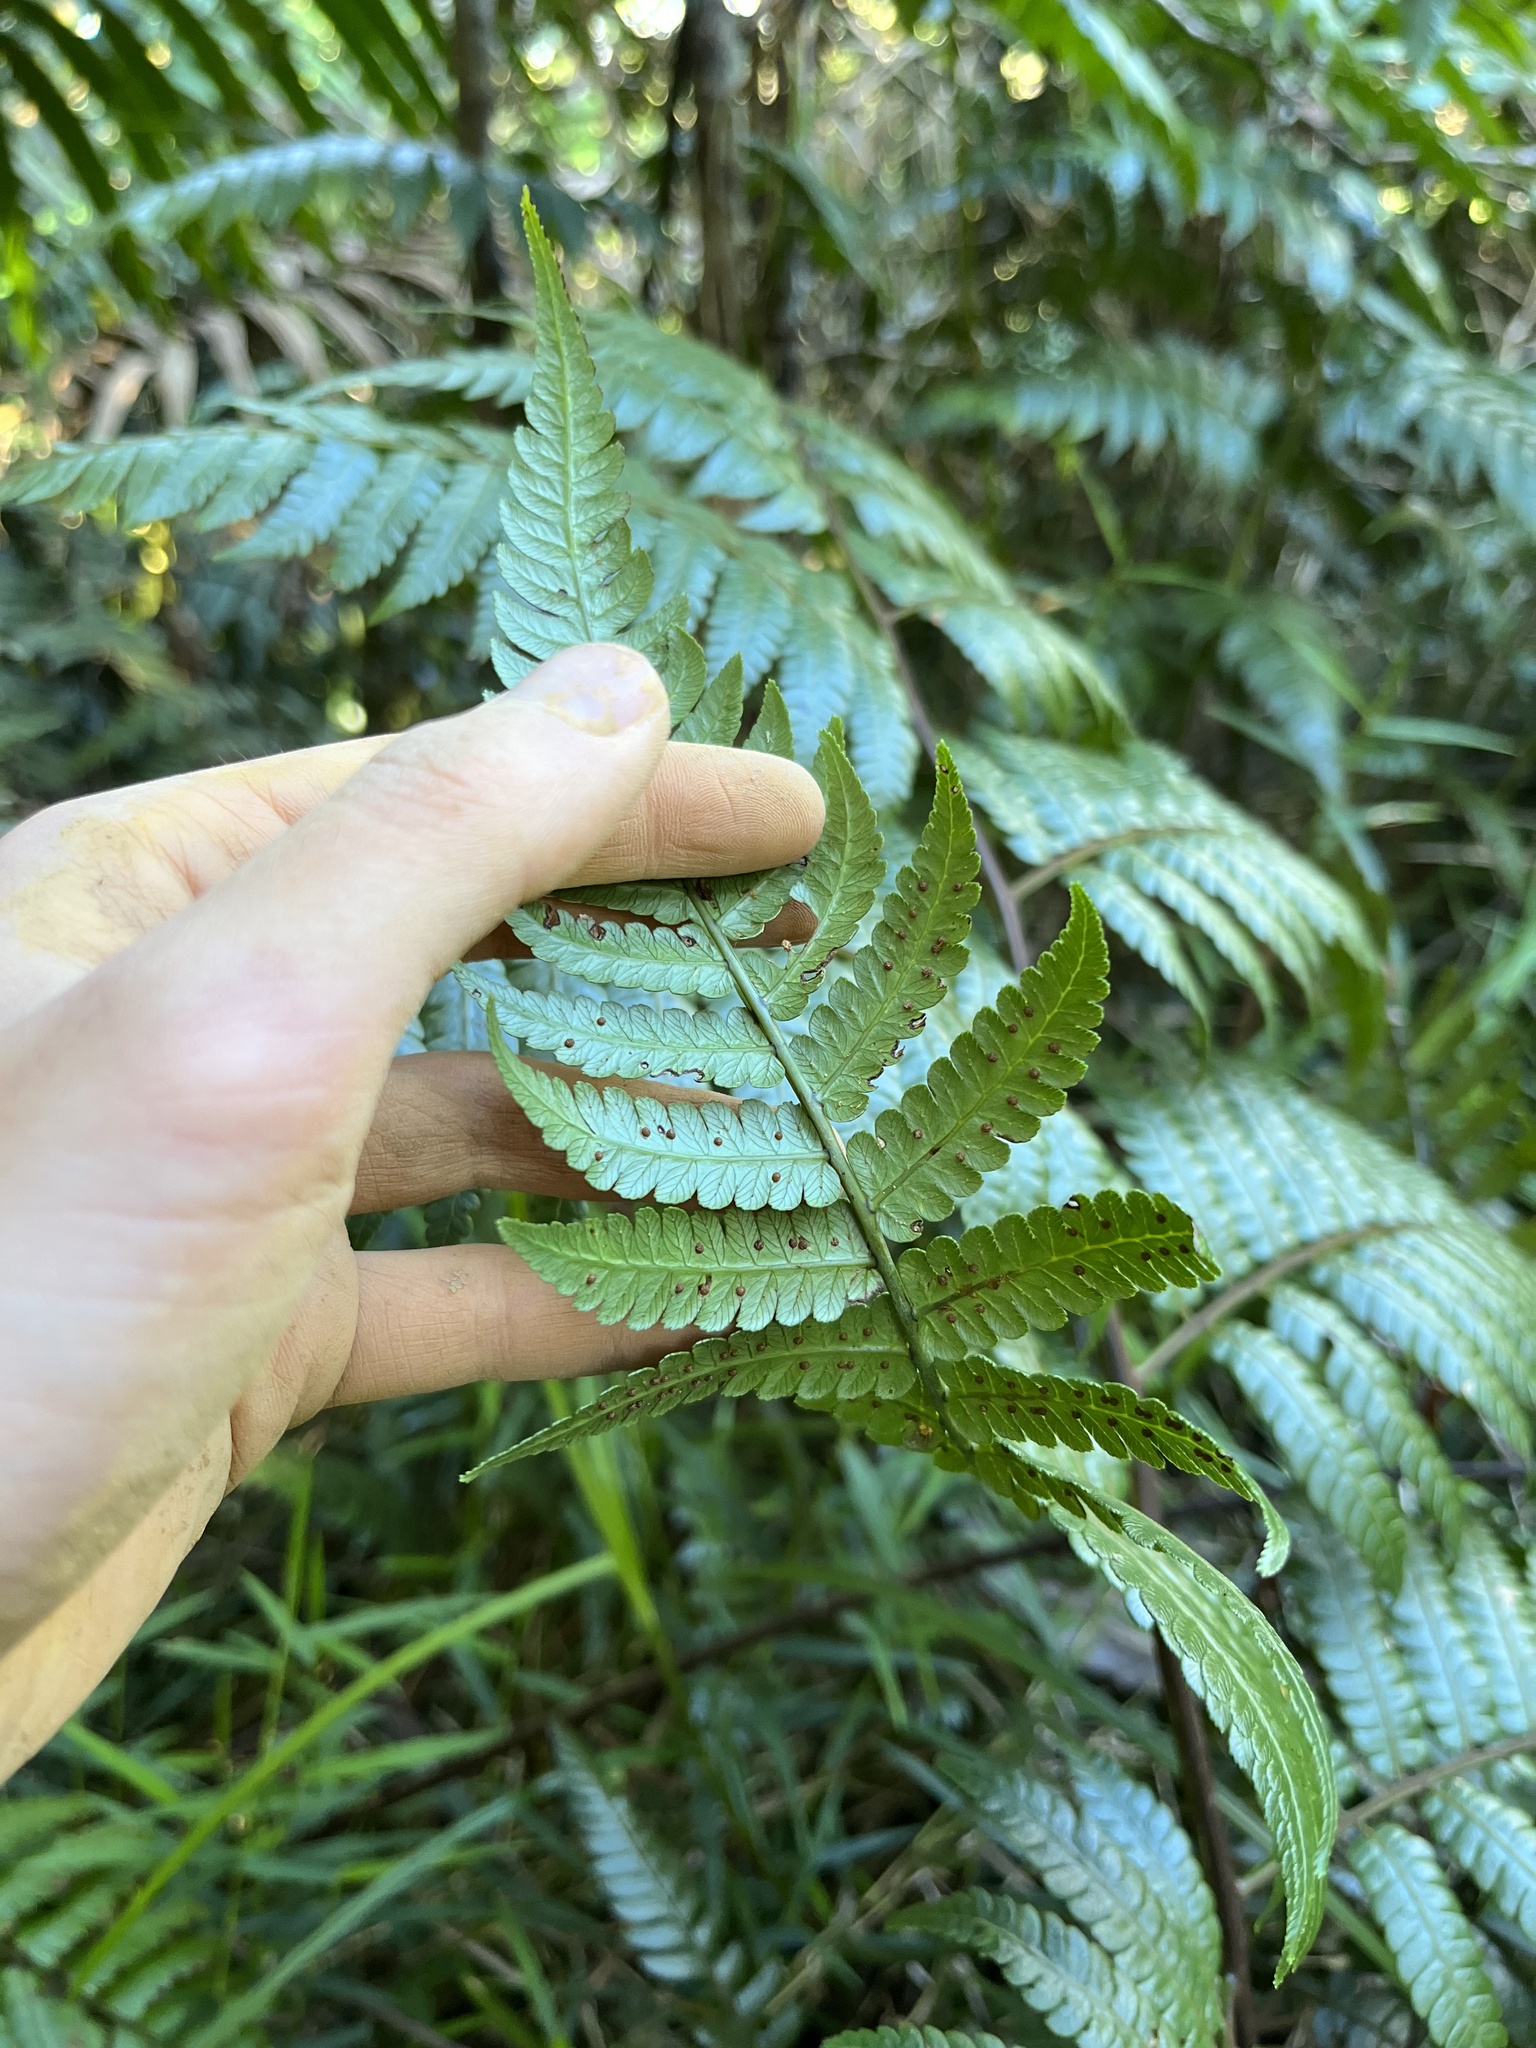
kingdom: Plantae
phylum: Tracheophyta
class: Polypodiopsida
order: Cyatheales
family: Cyatheaceae
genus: Cyathea
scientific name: Cyathea borinquena
